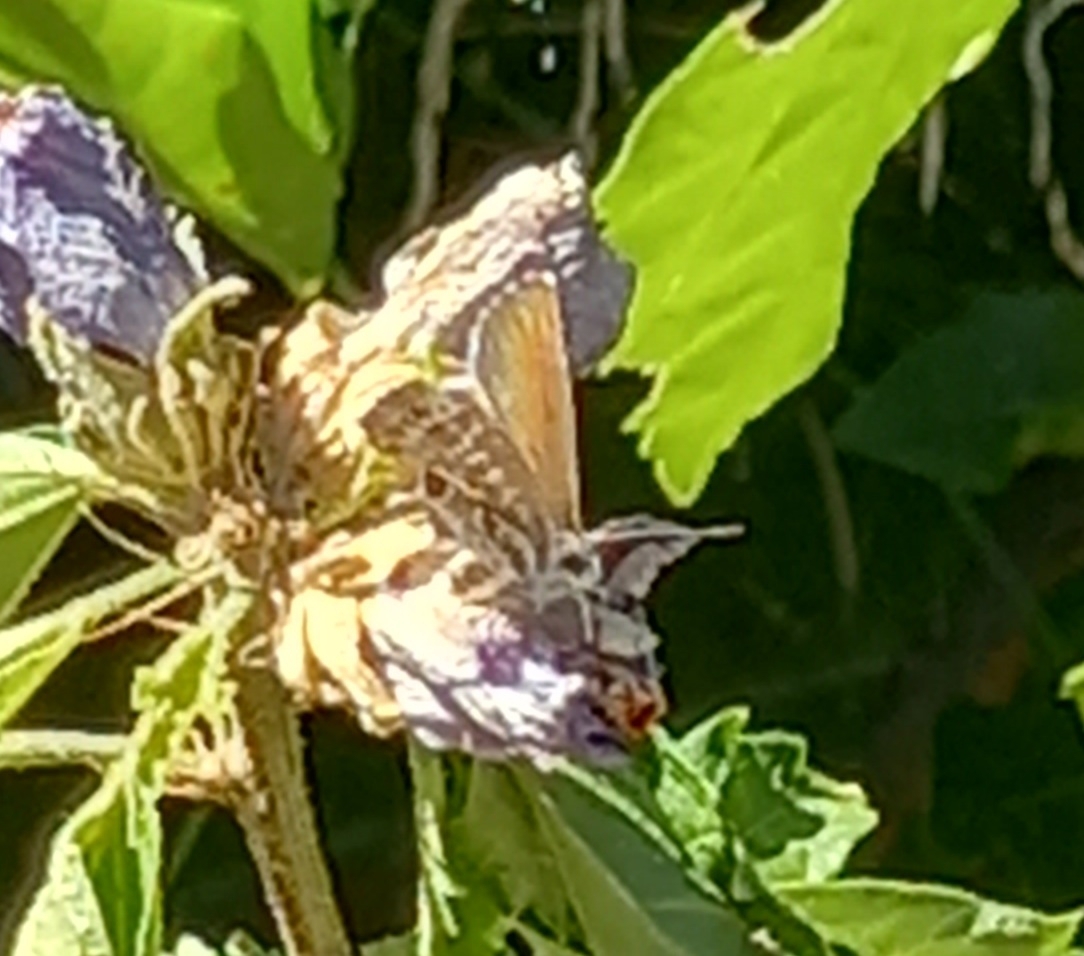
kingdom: Animalia
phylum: Arthropoda
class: Insecta
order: Lepidoptera
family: Lycaenidae
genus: Cacyreus
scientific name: Cacyreus marshalli
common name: Geranium bronze
